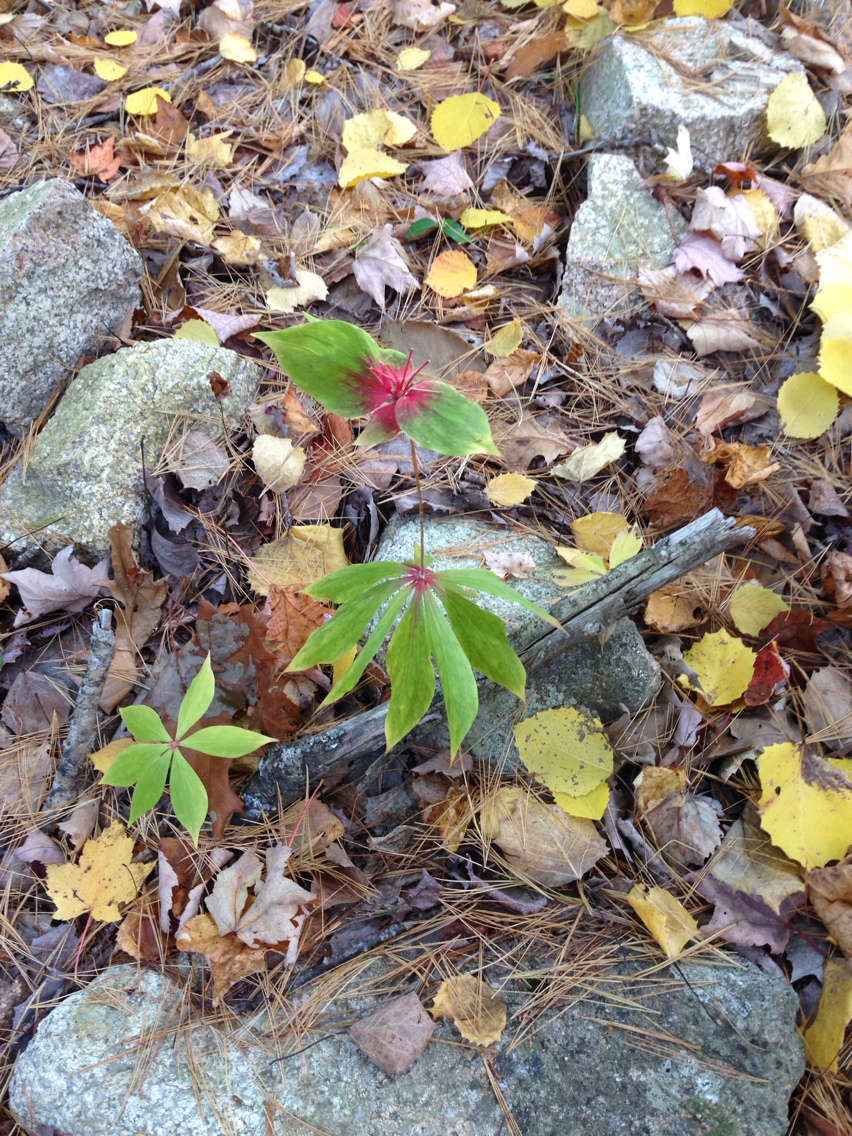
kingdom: Plantae
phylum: Tracheophyta
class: Liliopsida
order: Liliales
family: Liliaceae
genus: Medeola
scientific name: Medeola virginiana
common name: Indian cucumber-root
